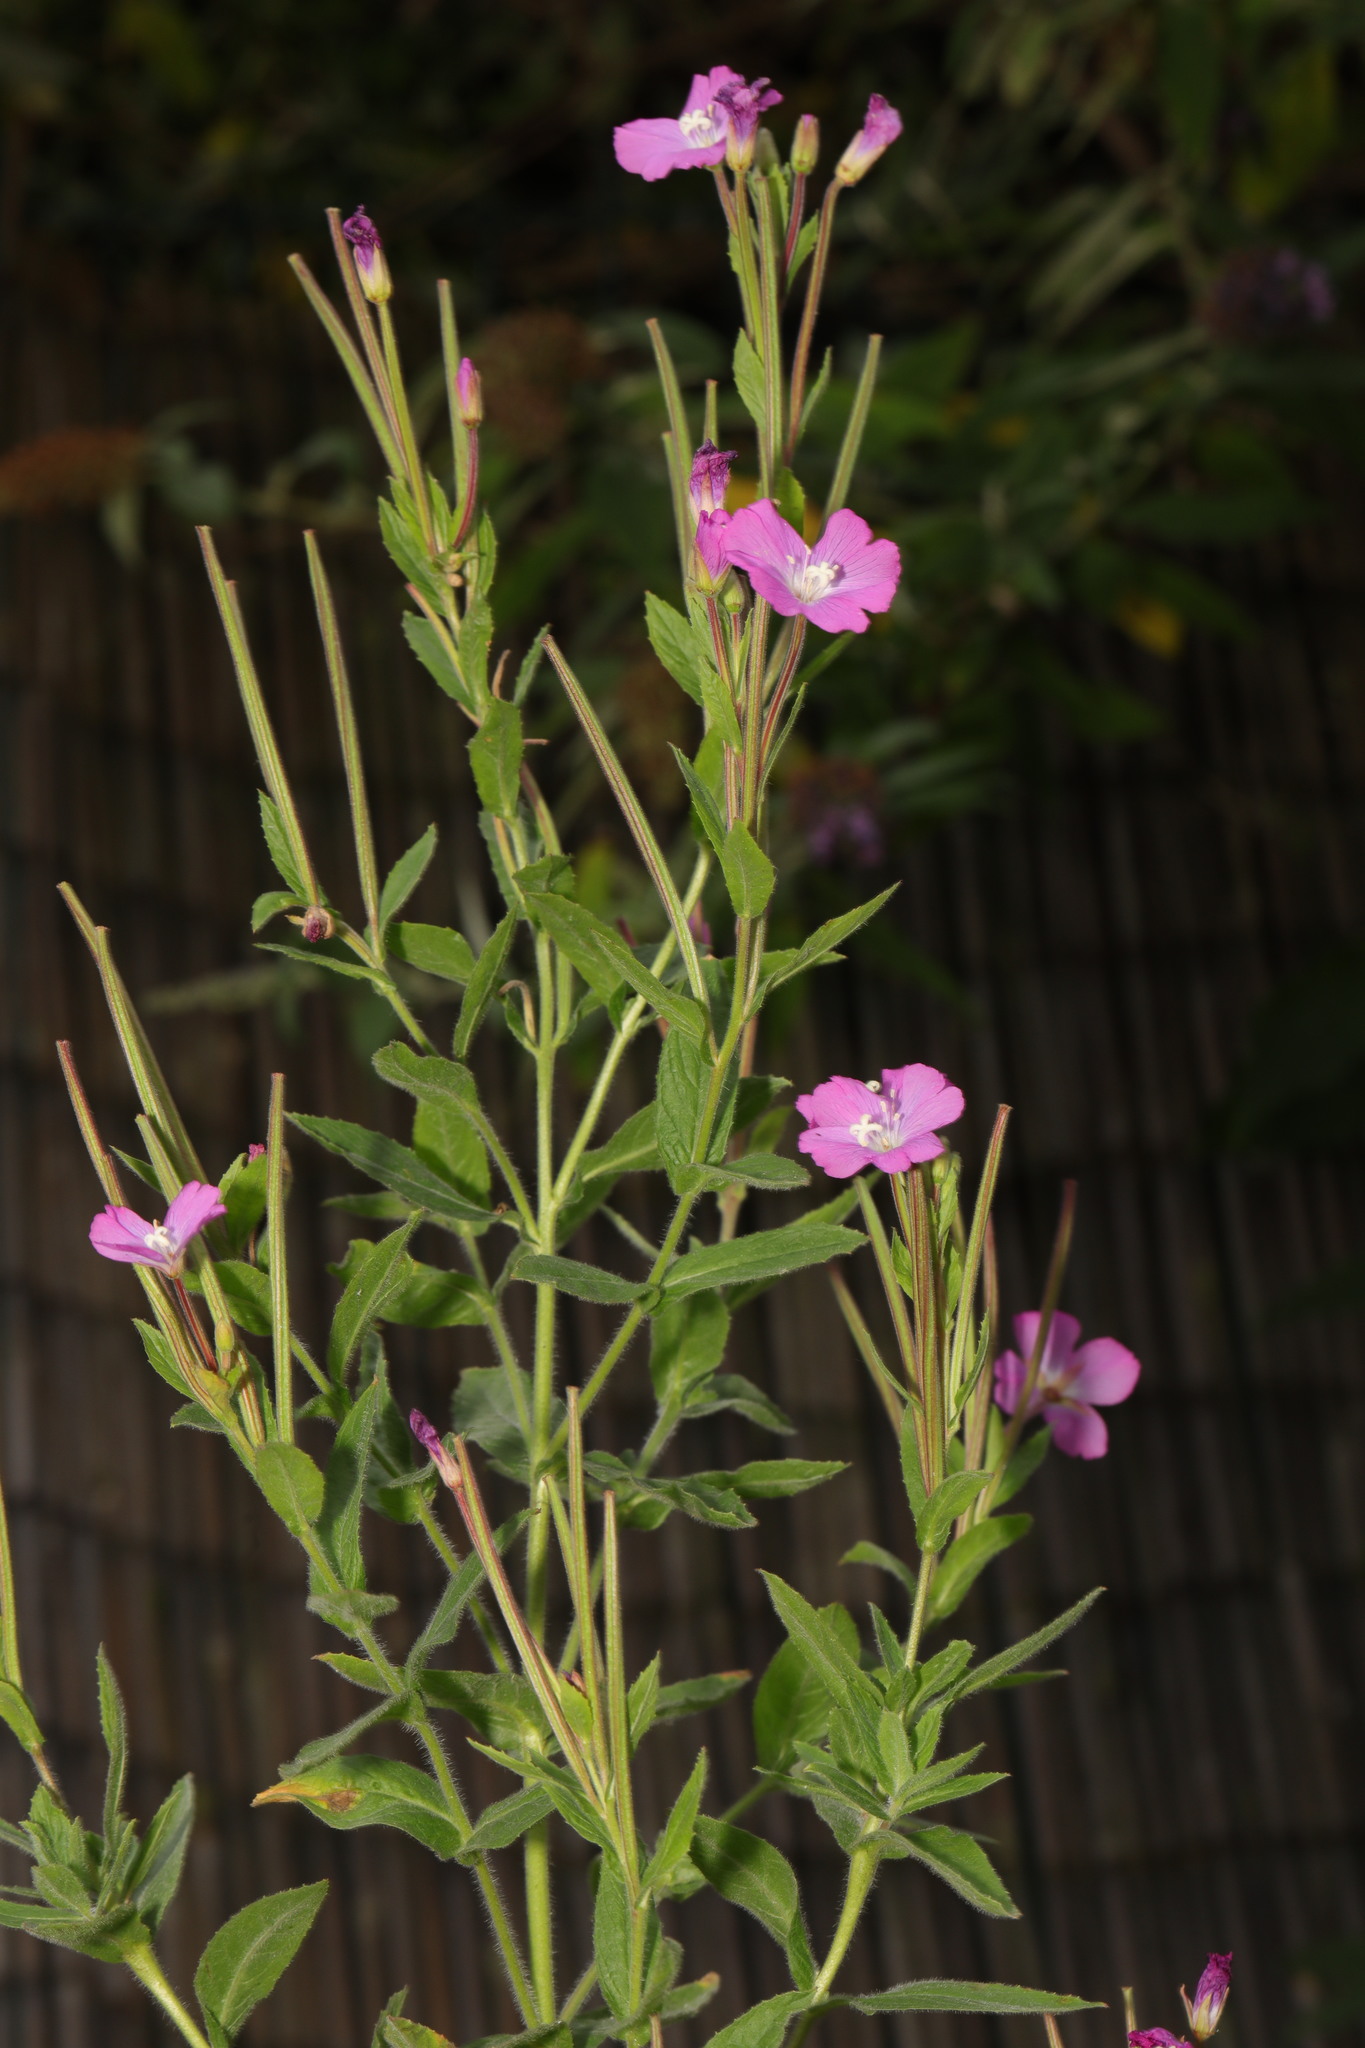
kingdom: Plantae
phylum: Tracheophyta
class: Magnoliopsida
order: Myrtales
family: Onagraceae
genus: Epilobium
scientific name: Epilobium hirsutum
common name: Great willowherb
